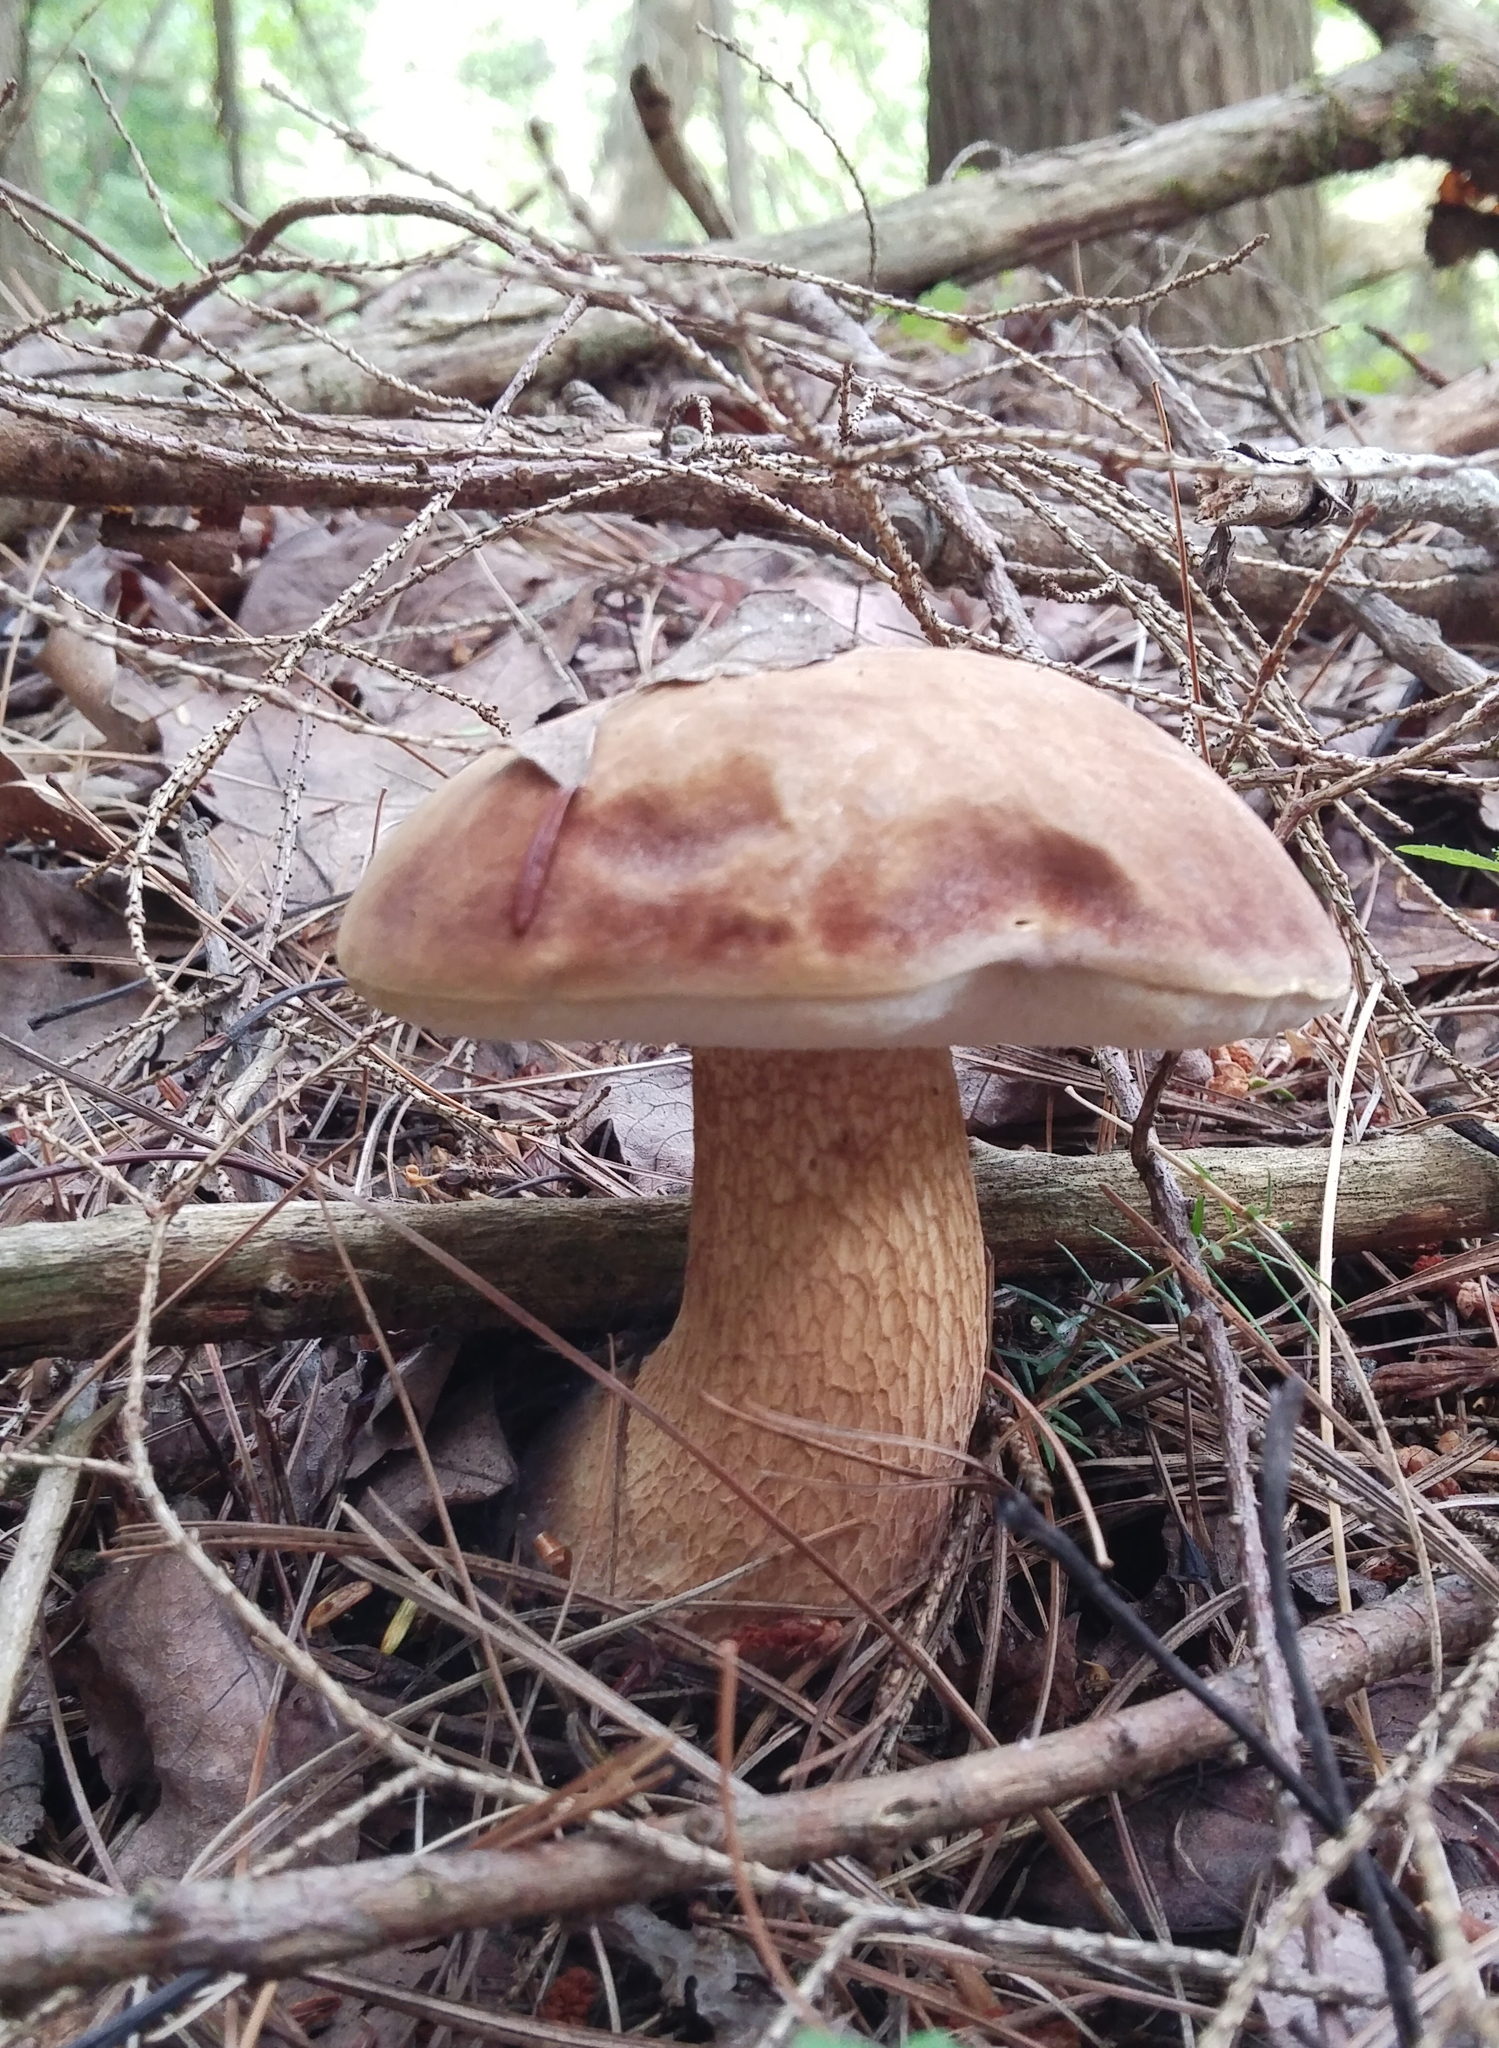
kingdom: Fungi
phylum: Basidiomycota
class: Agaricomycetes
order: Boletales
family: Boletaceae
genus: Tylopilus
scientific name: Tylopilus felleus
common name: Bitter bolete
